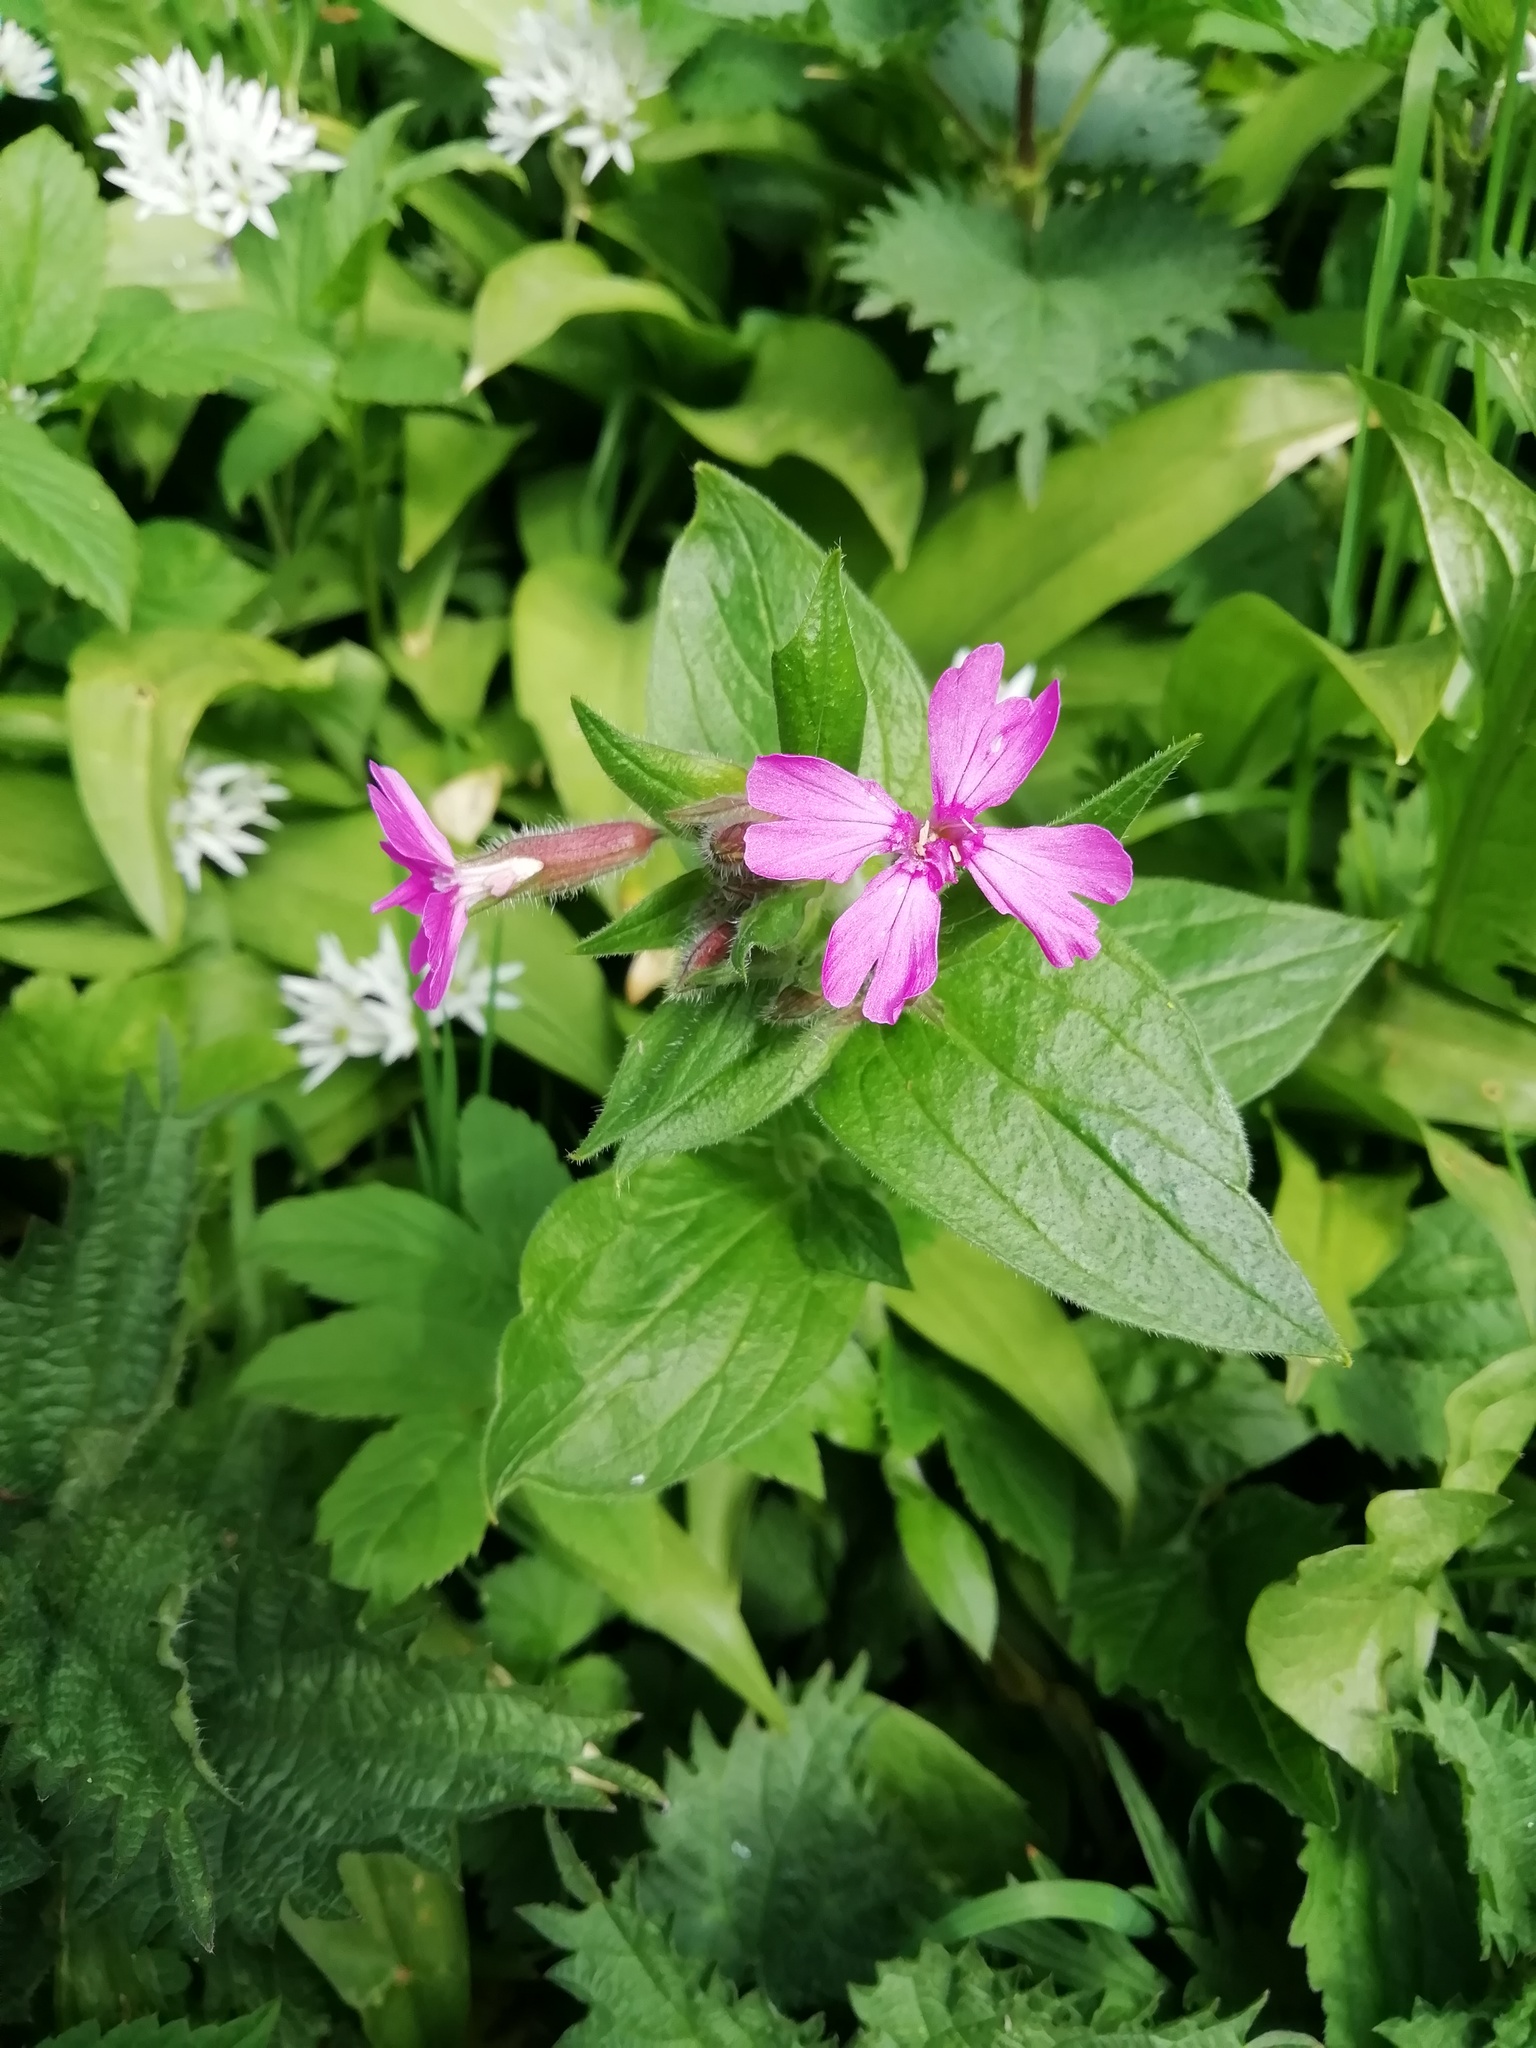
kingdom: Plantae
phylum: Tracheophyta
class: Magnoliopsida
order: Caryophyllales
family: Caryophyllaceae
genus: Silene
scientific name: Silene dioica
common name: Red campion
